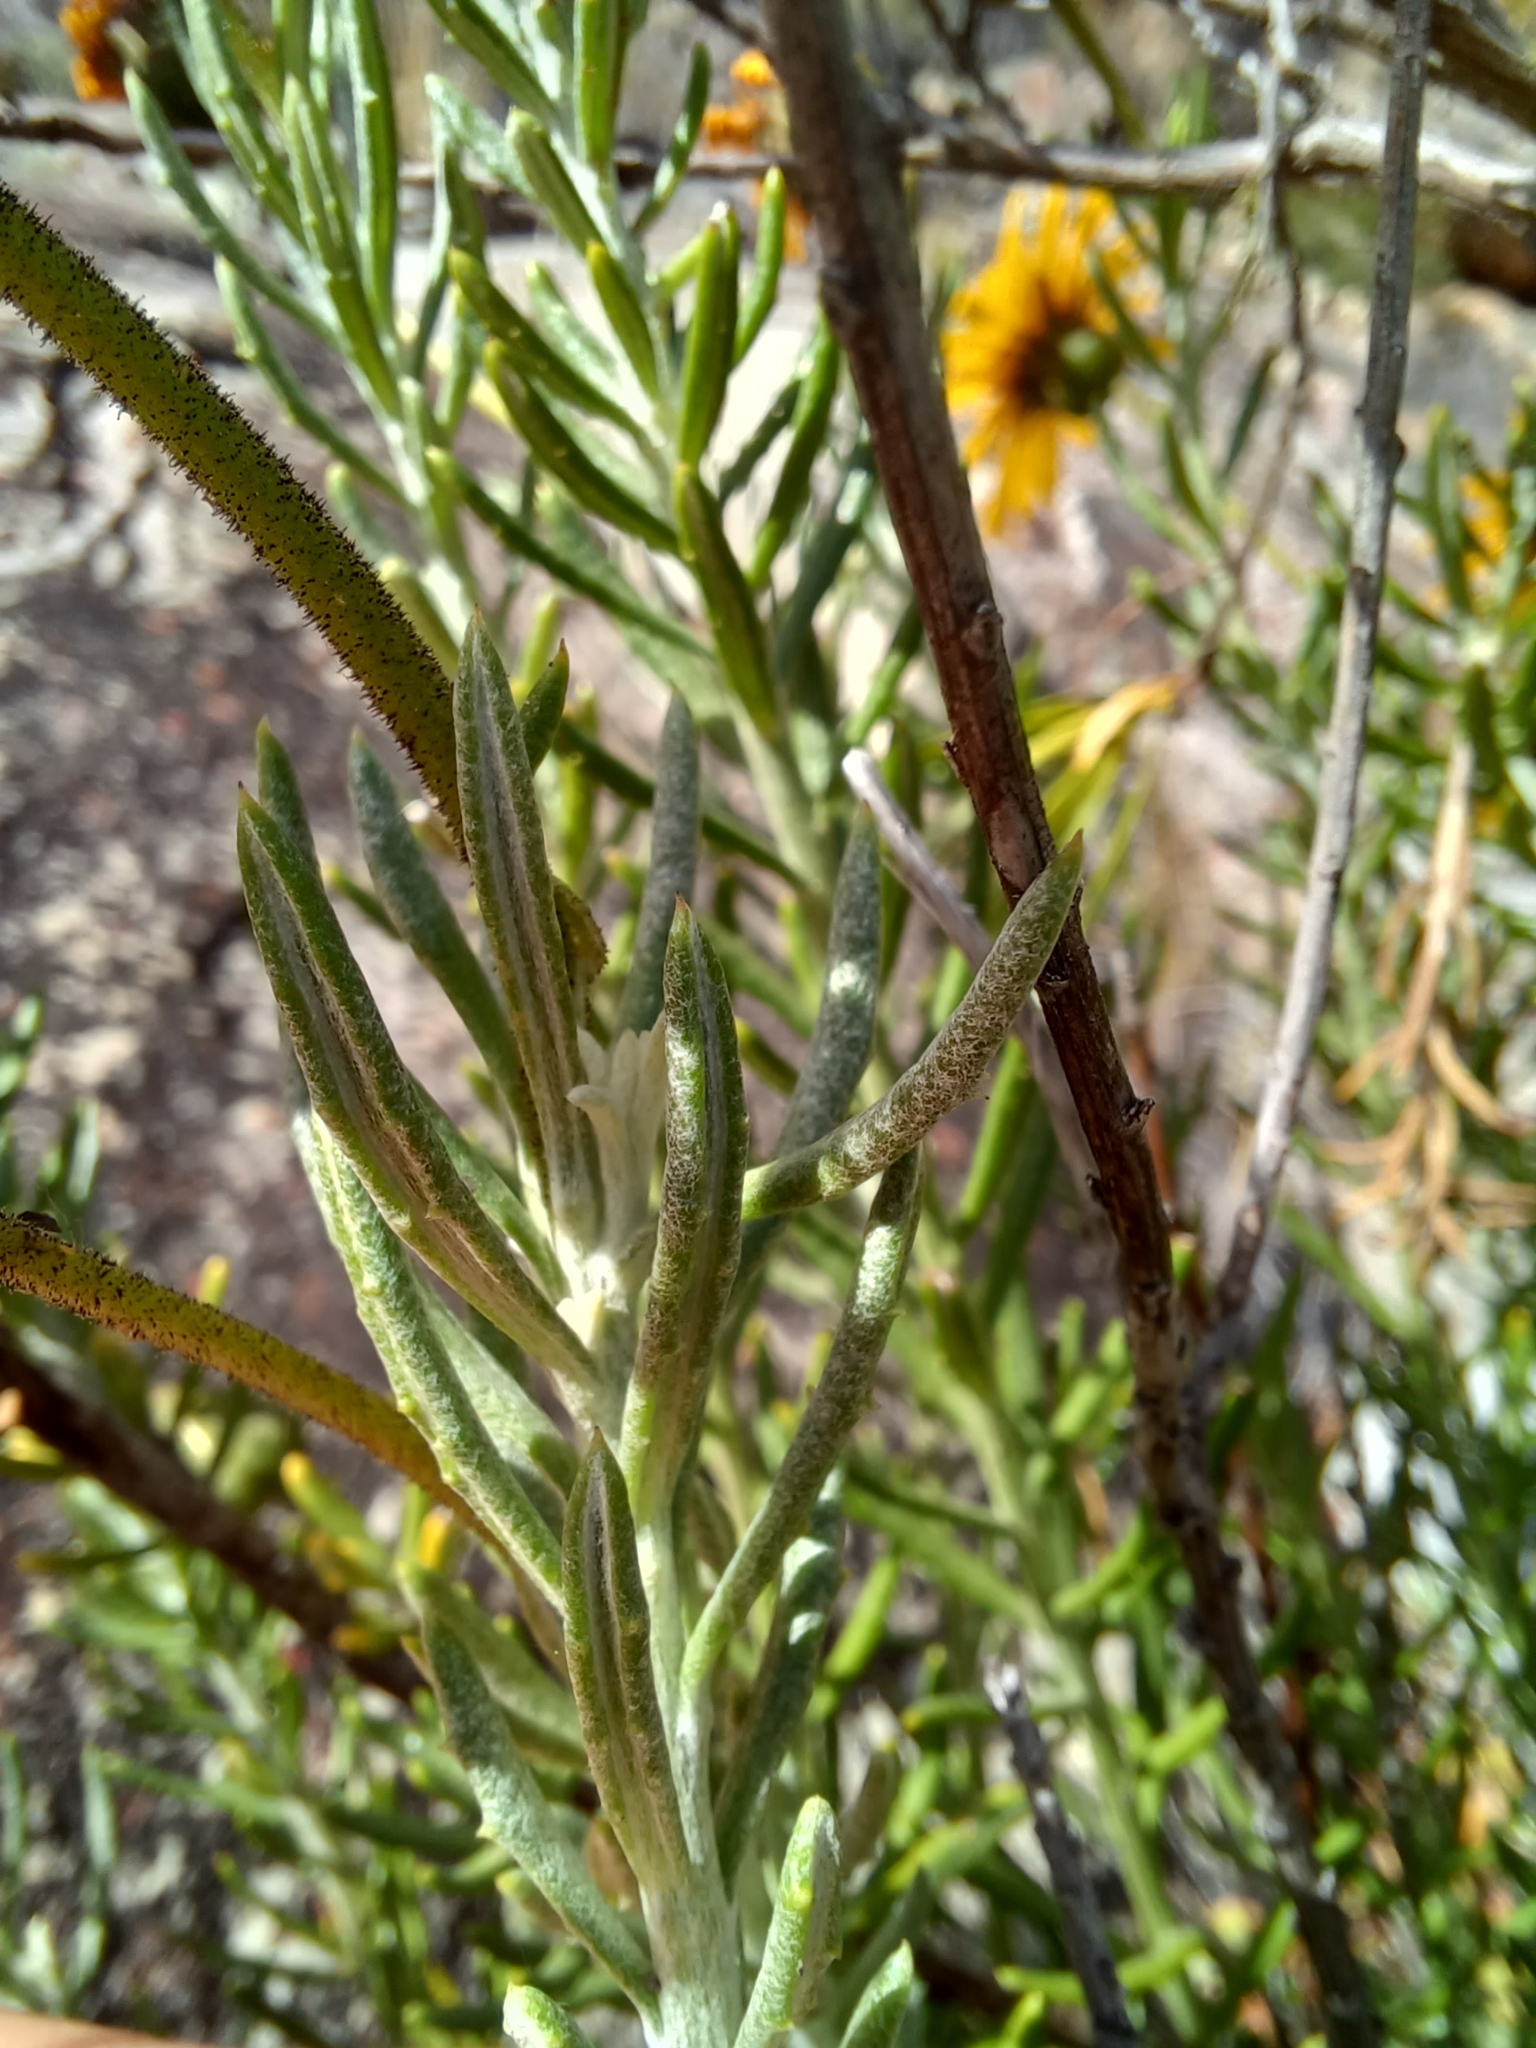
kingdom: Plantae
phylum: Tracheophyta
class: Magnoliopsida
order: Asterales
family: Asteraceae
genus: Heterolepis
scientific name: Heterolepis aliena
